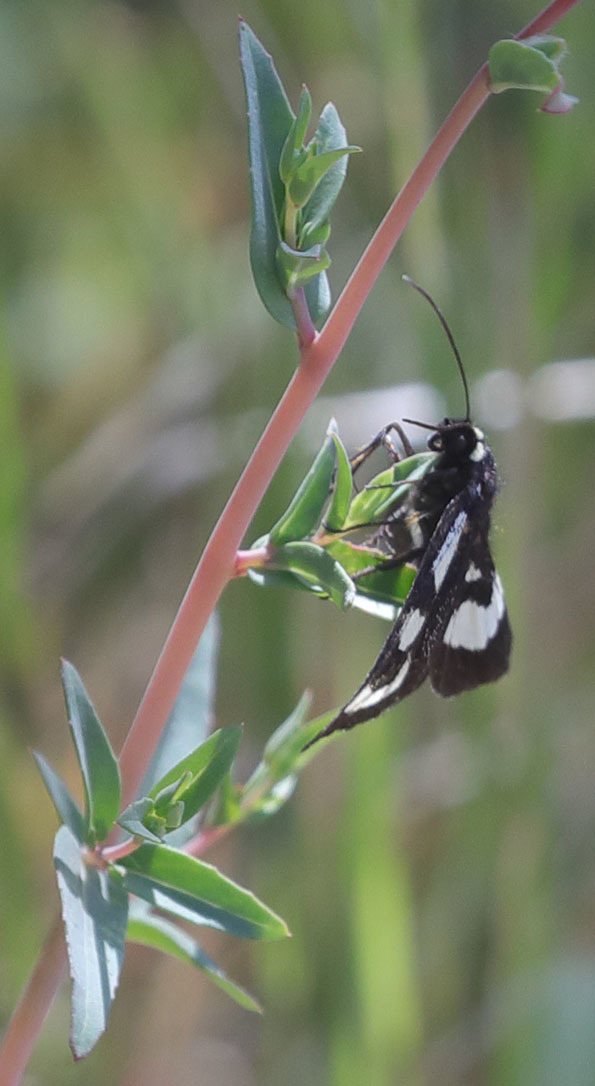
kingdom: Animalia
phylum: Arthropoda
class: Insecta
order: Lepidoptera
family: Noctuidae
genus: Alypia
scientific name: Alypia mariposa
